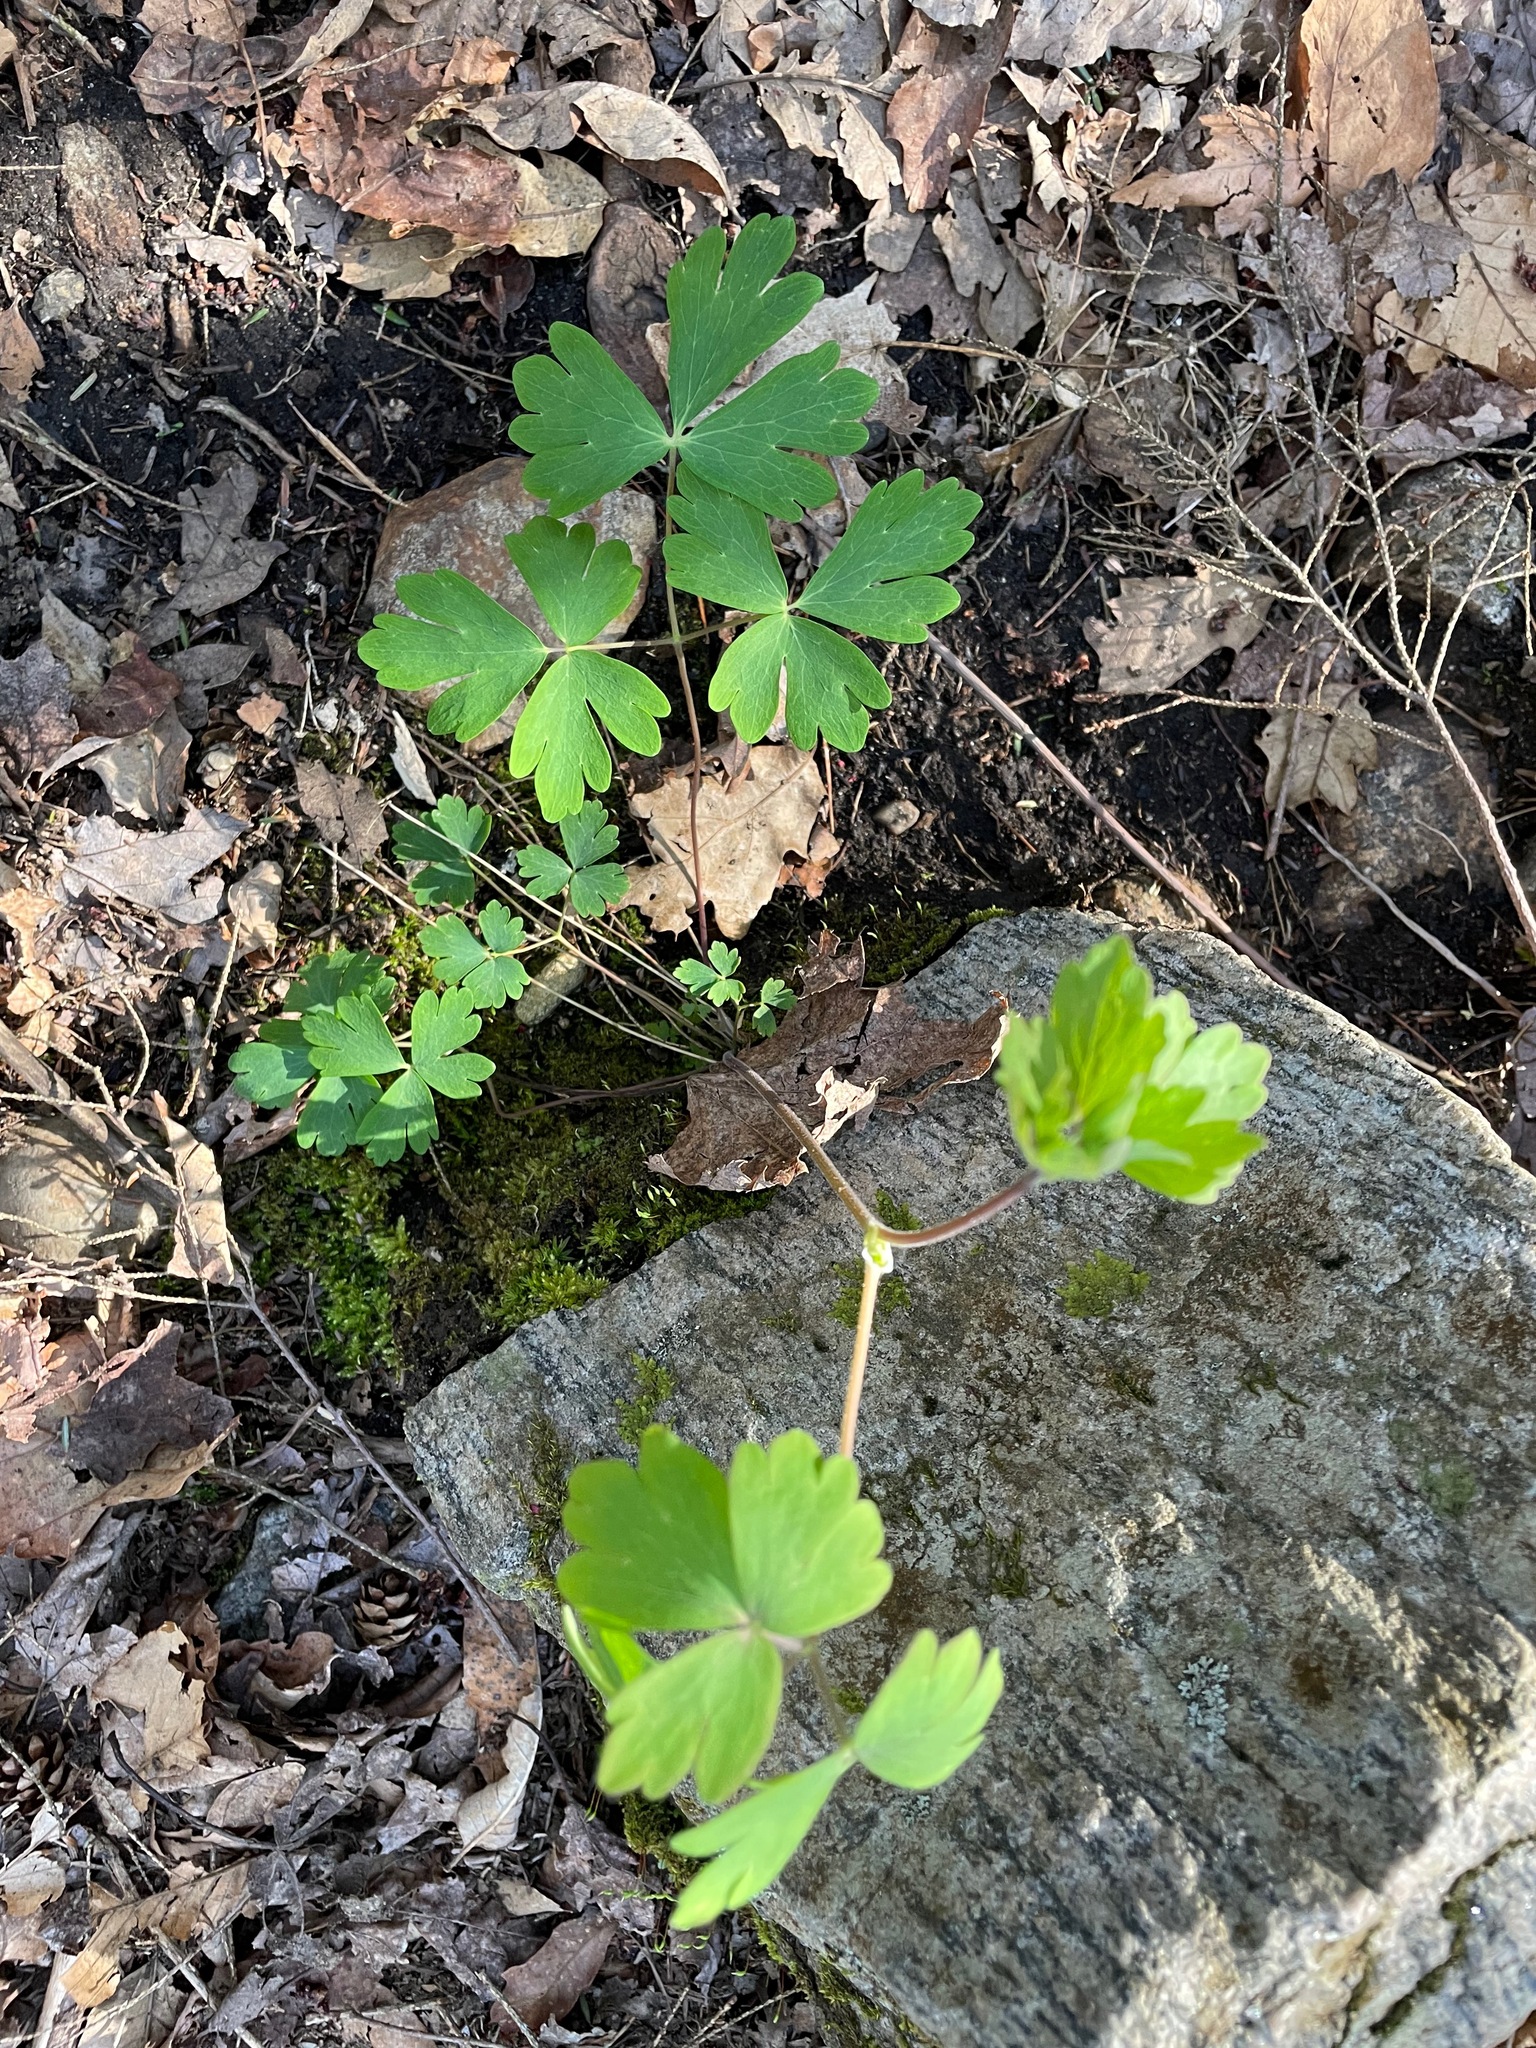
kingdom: Plantae
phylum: Tracheophyta
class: Magnoliopsida
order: Ranunculales
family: Ranunculaceae
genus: Aquilegia
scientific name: Aquilegia canadensis
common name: American columbine
